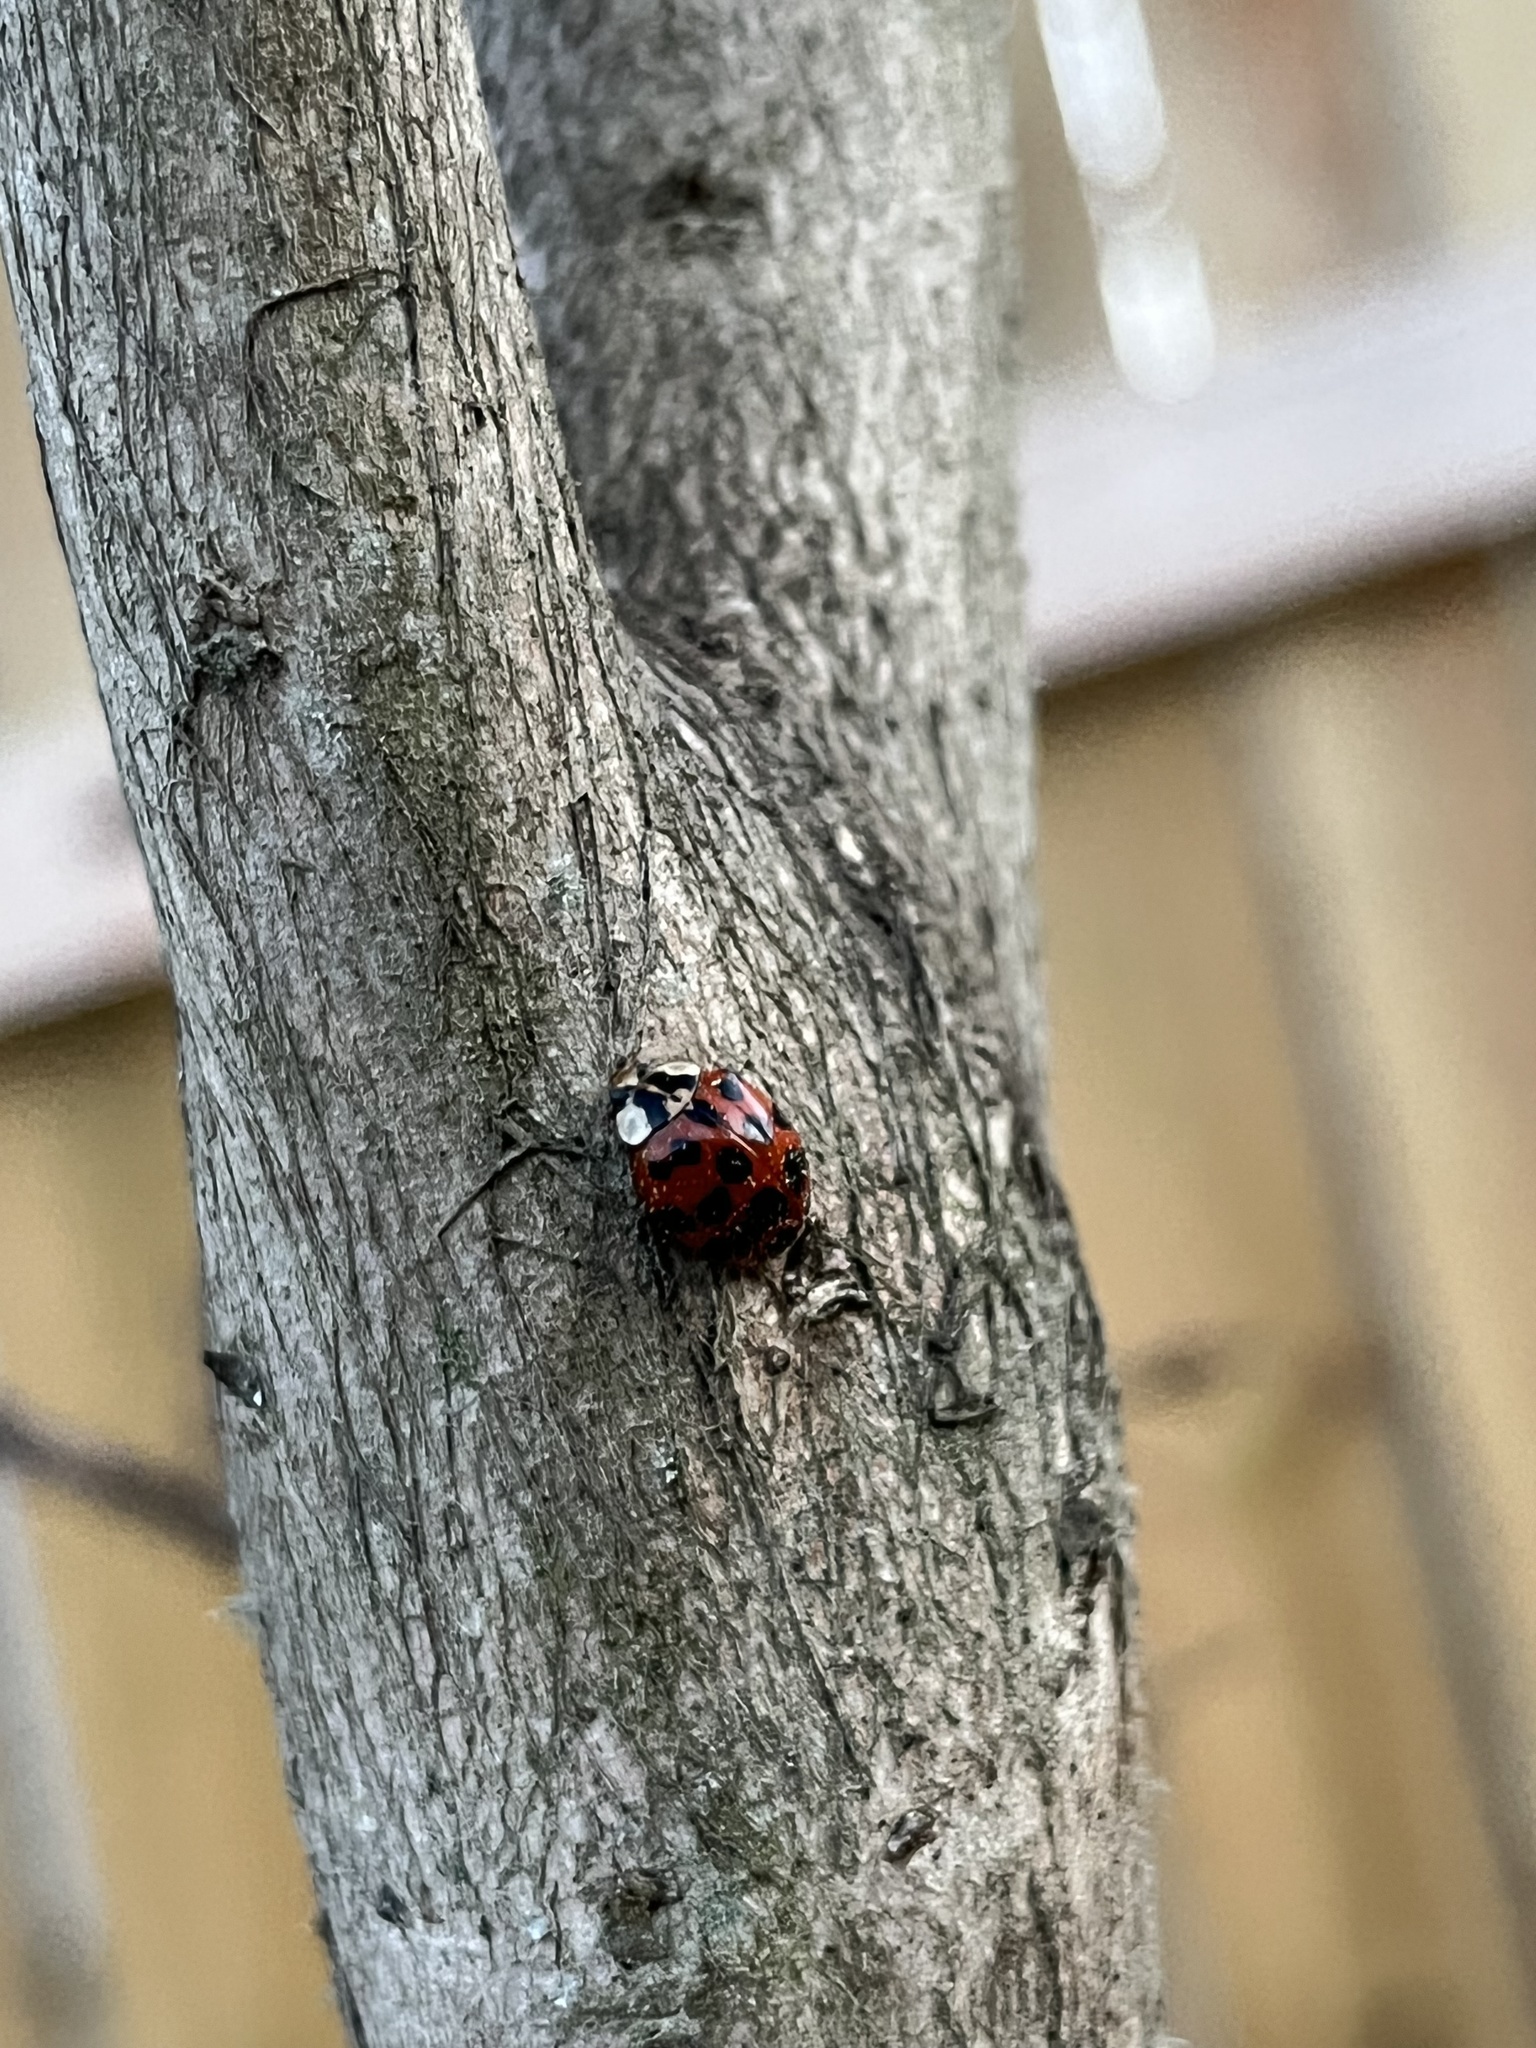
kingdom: Animalia
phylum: Arthropoda
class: Insecta
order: Coleoptera
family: Coccinellidae
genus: Harmonia
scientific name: Harmonia axyridis
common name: Harlequin ladybird
